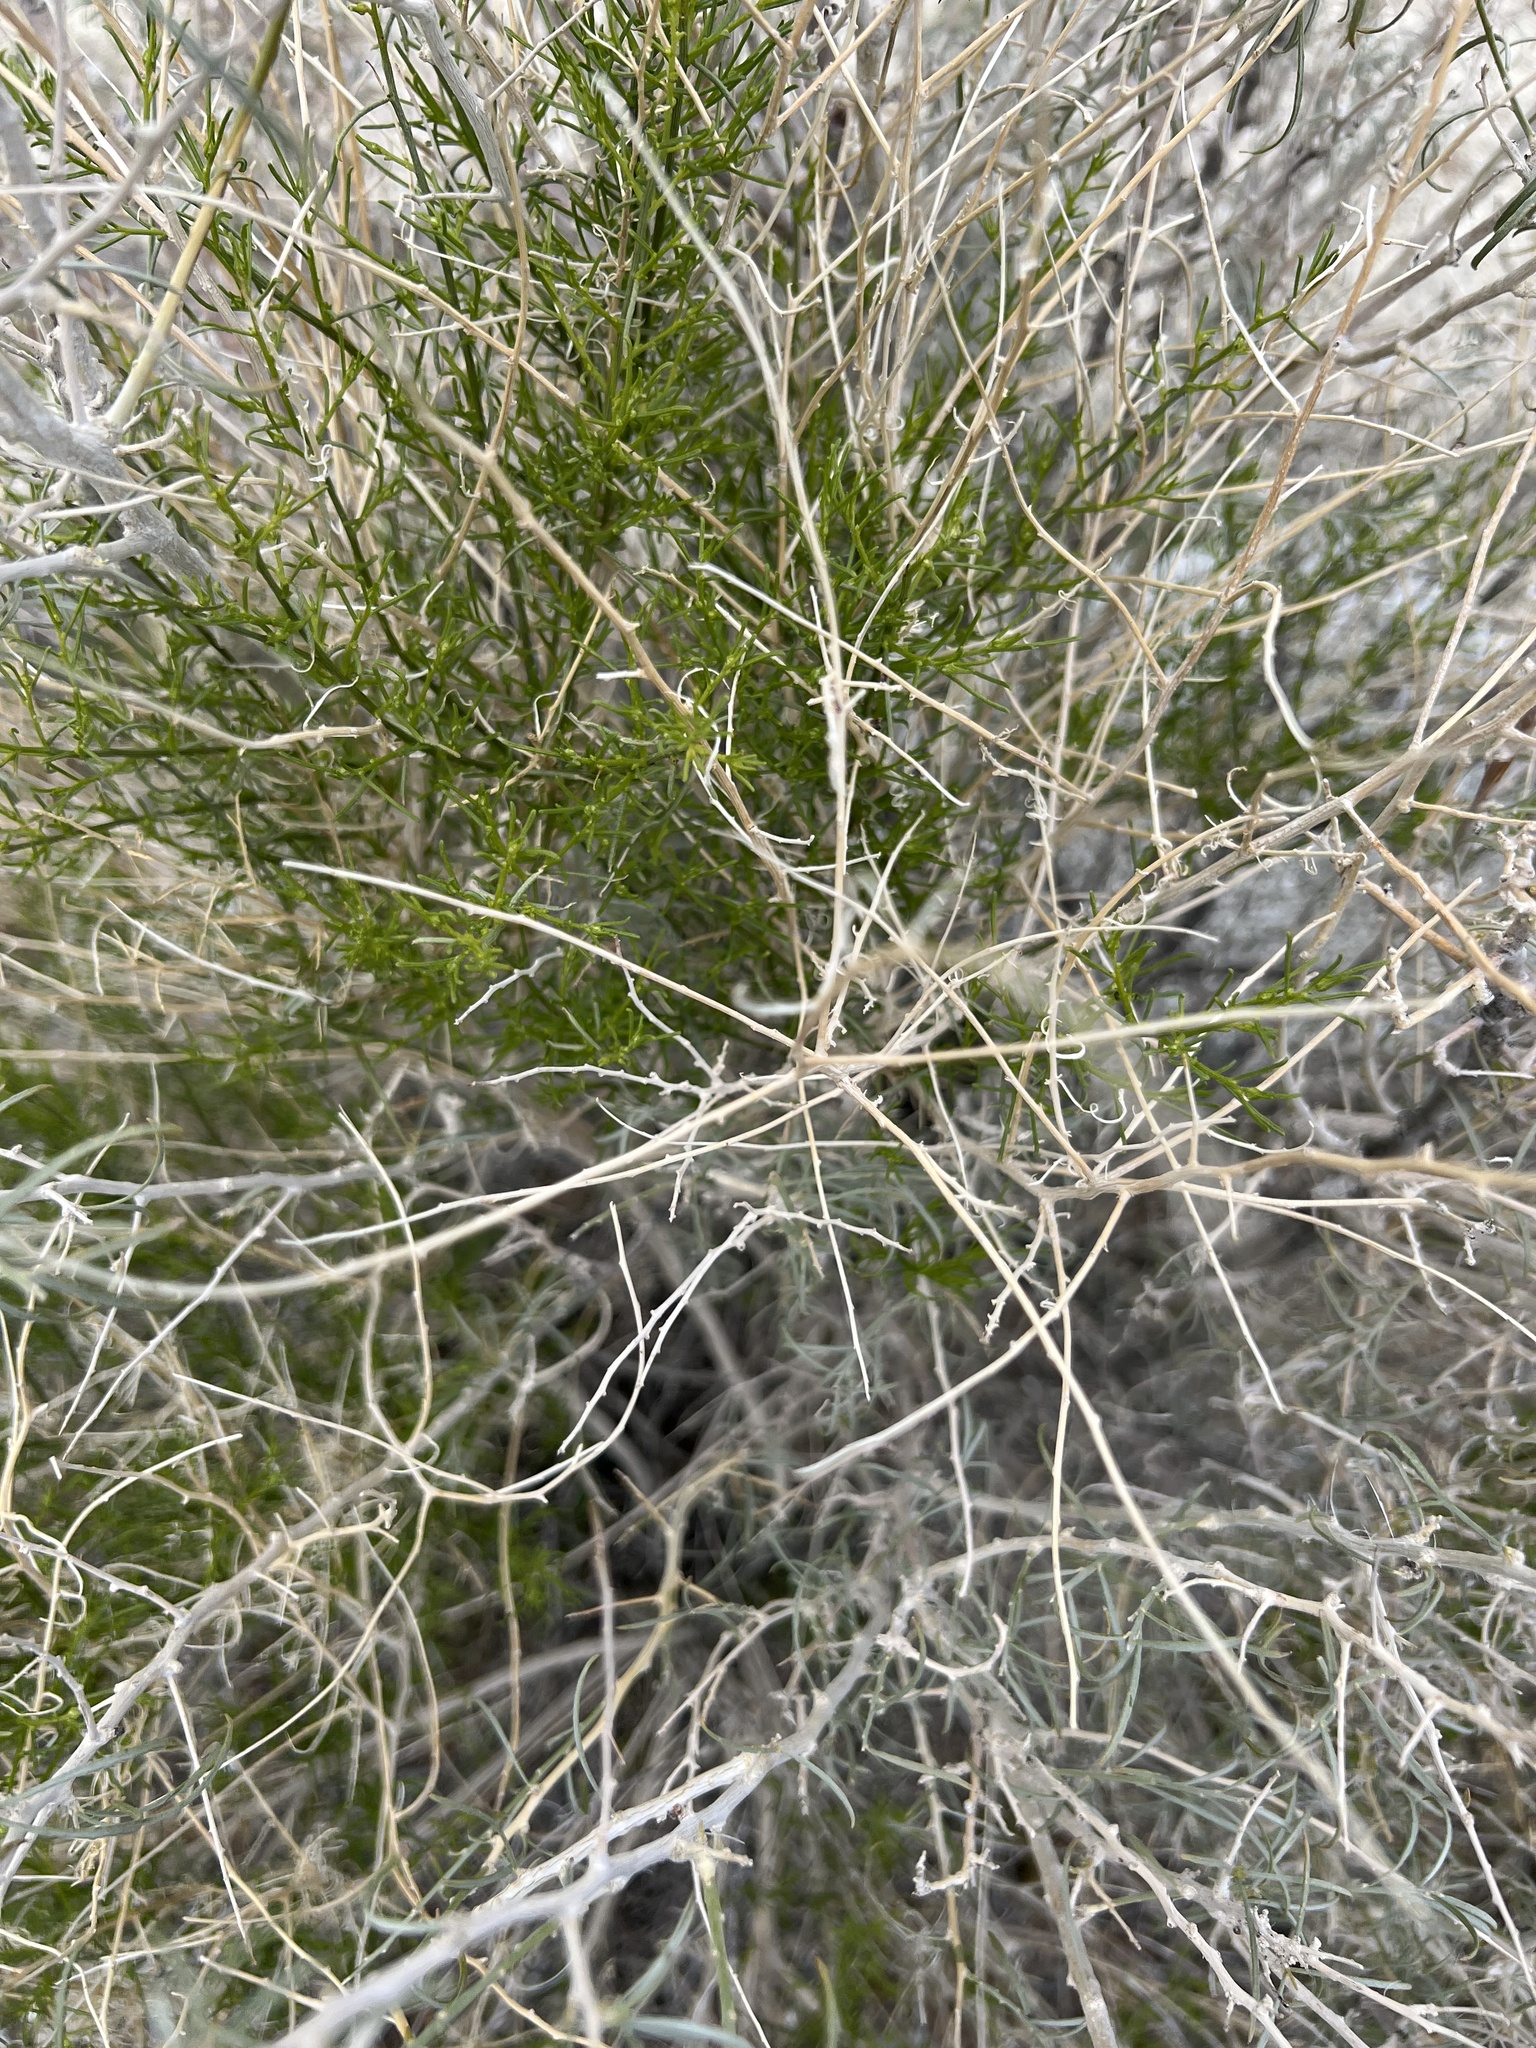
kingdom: Plantae
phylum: Tracheophyta
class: Magnoliopsida
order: Asterales
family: Asteraceae
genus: Ambrosia
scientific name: Ambrosia salsola
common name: Burrobrush
